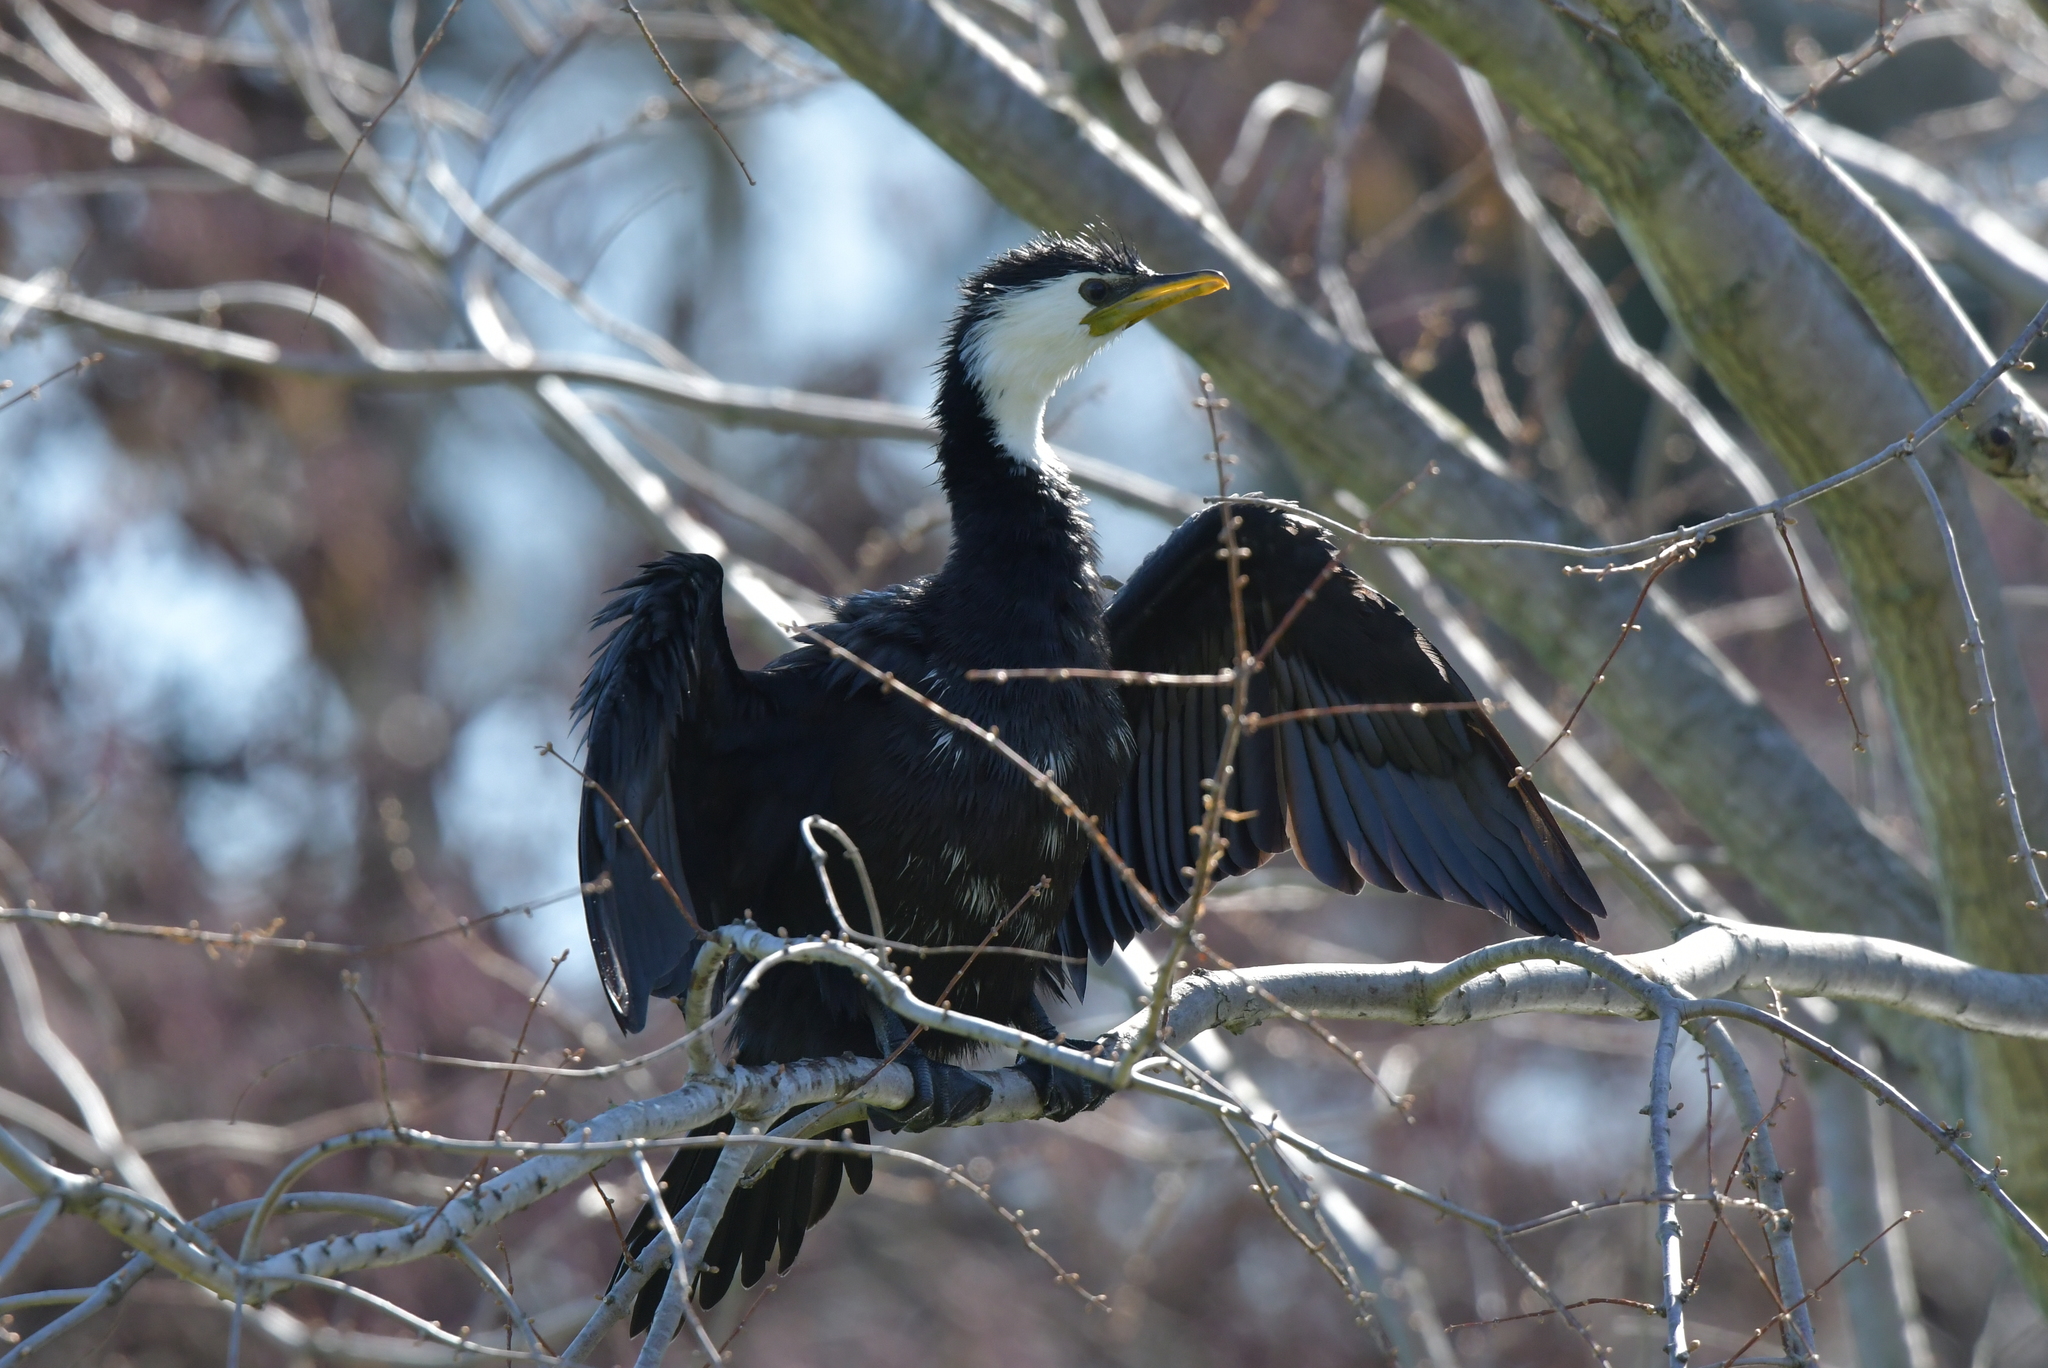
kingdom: Animalia
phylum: Chordata
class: Aves
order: Suliformes
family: Phalacrocoracidae
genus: Microcarbo
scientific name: Microcarbo melanoleucos
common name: Little pied cormorant
